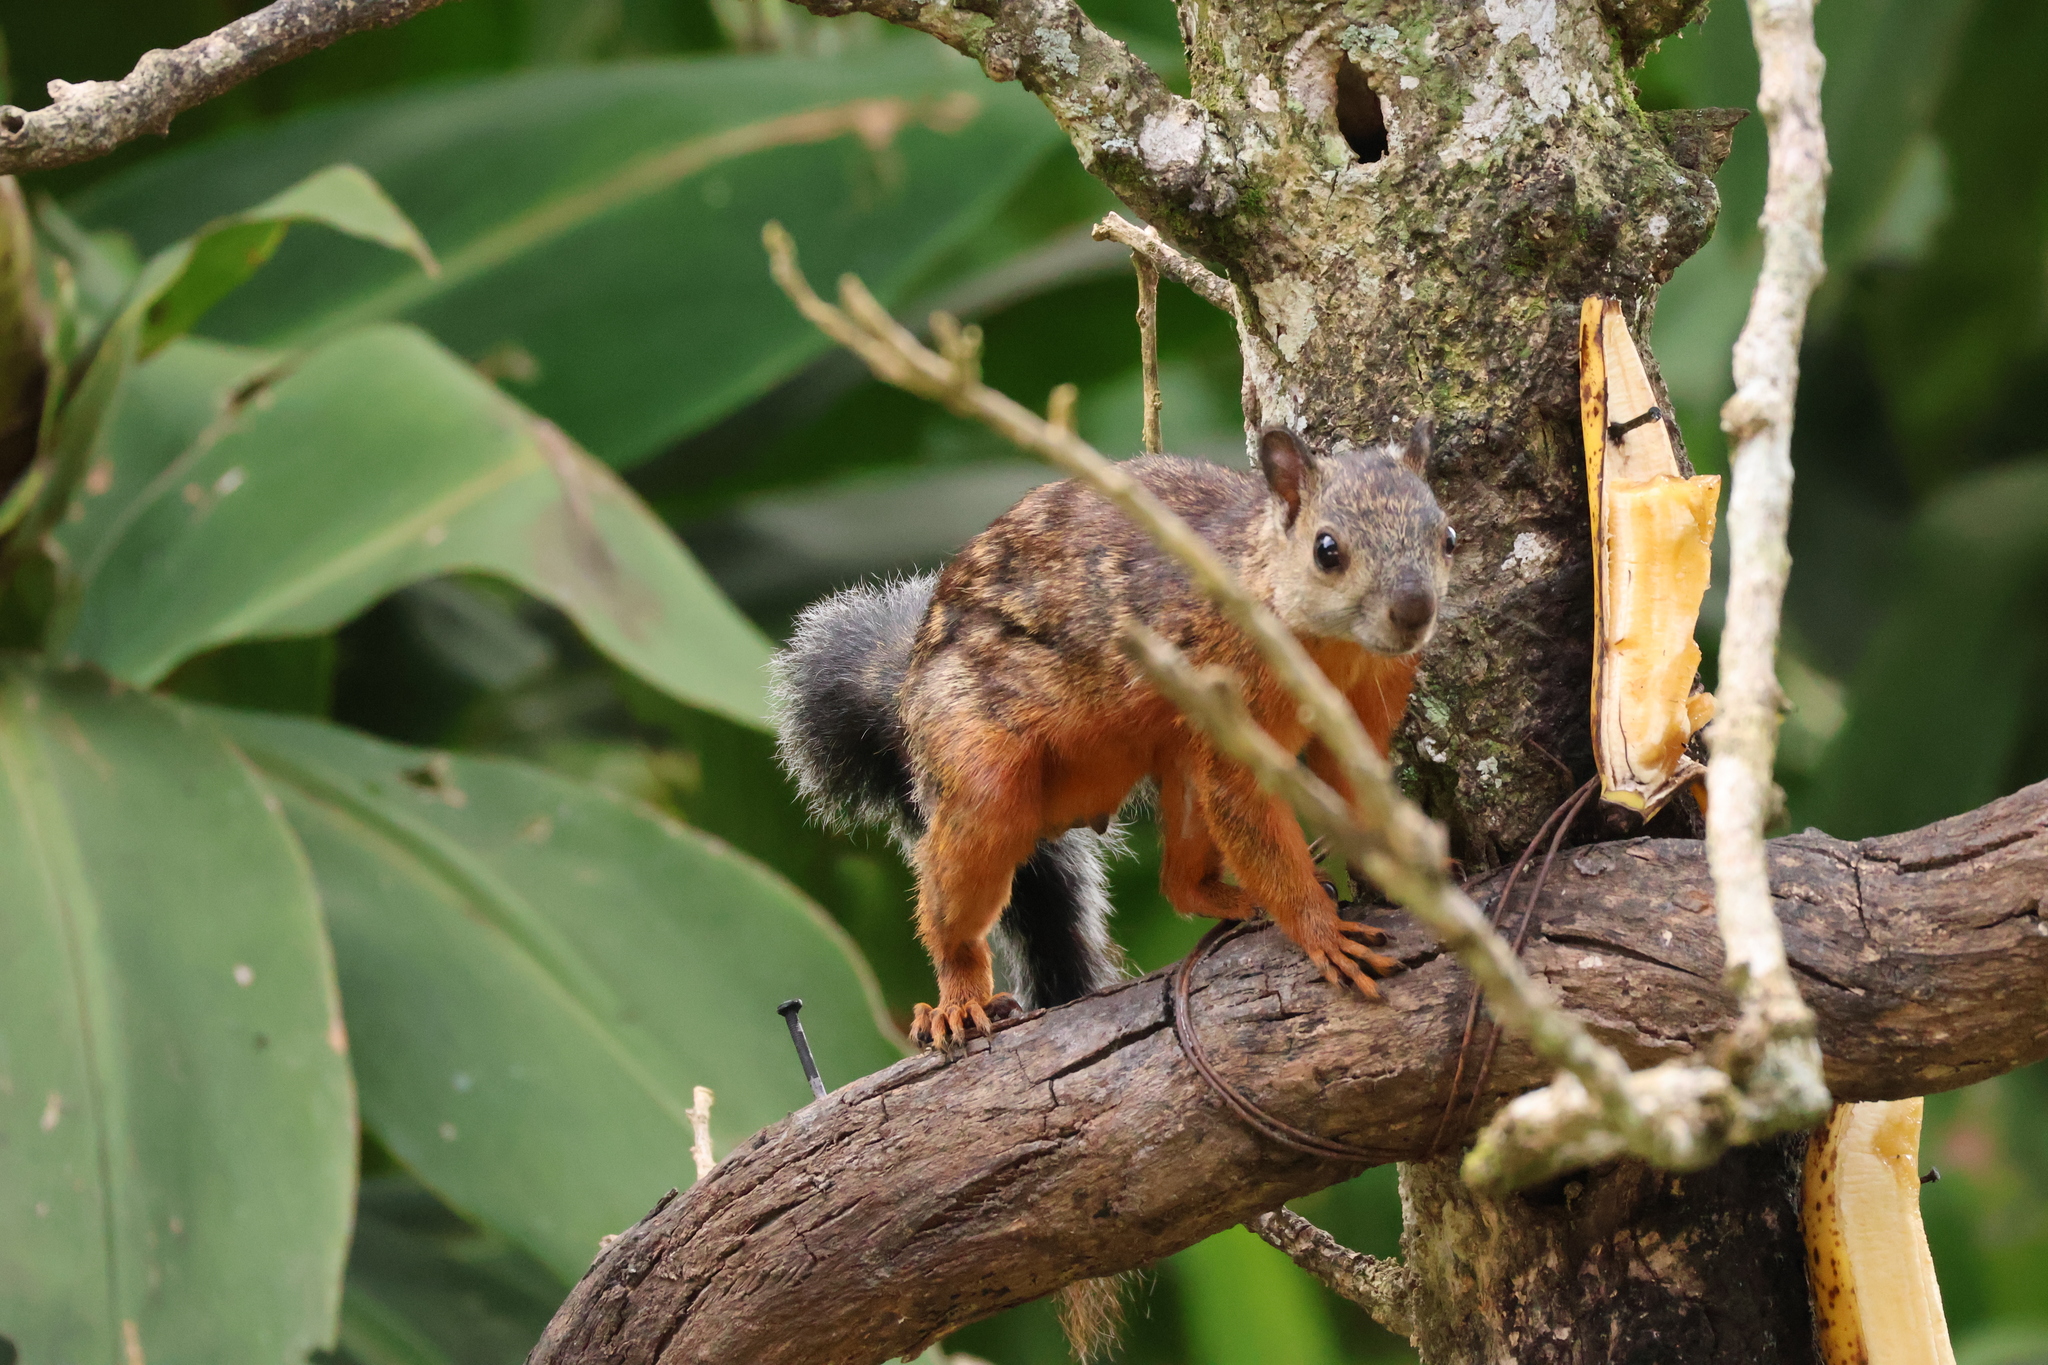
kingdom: Animalia
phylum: Chordata
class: Mammalia
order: Rodentia
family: Sciuridae
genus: Sciurus
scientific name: Sciurus variegatoides
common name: Variegated squirrel
